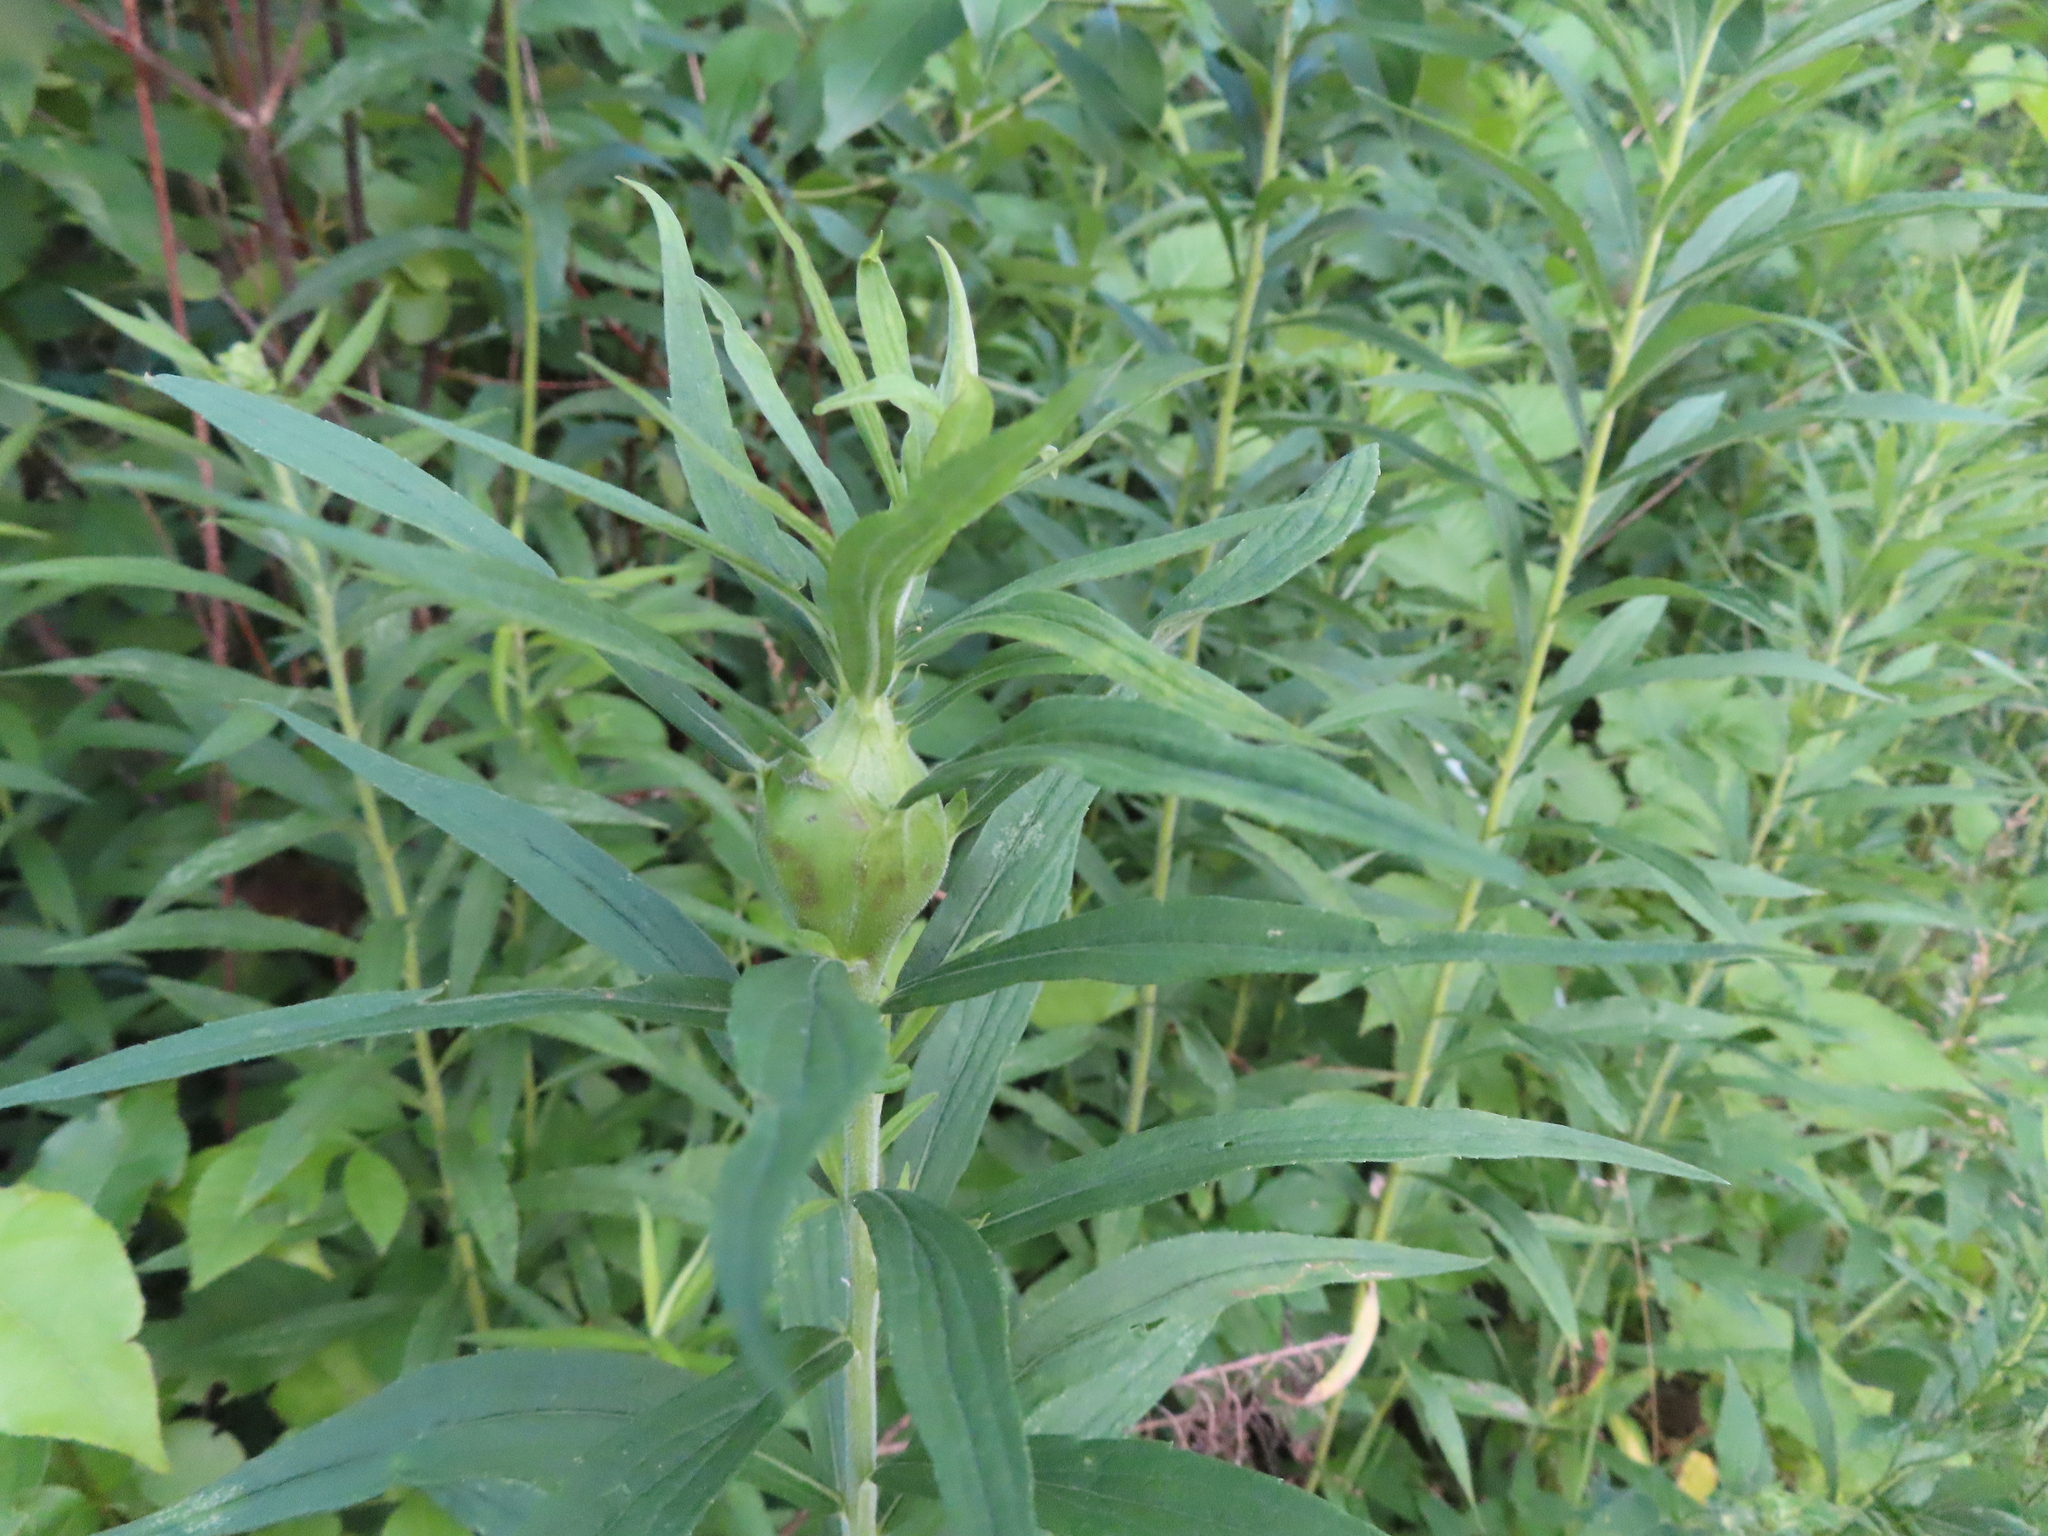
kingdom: Animalia
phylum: Arthropoda
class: Insecta
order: Diptera
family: Tephritidae
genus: Eurosta
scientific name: Eurosta solidaginis
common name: Goldenrod gall fly
